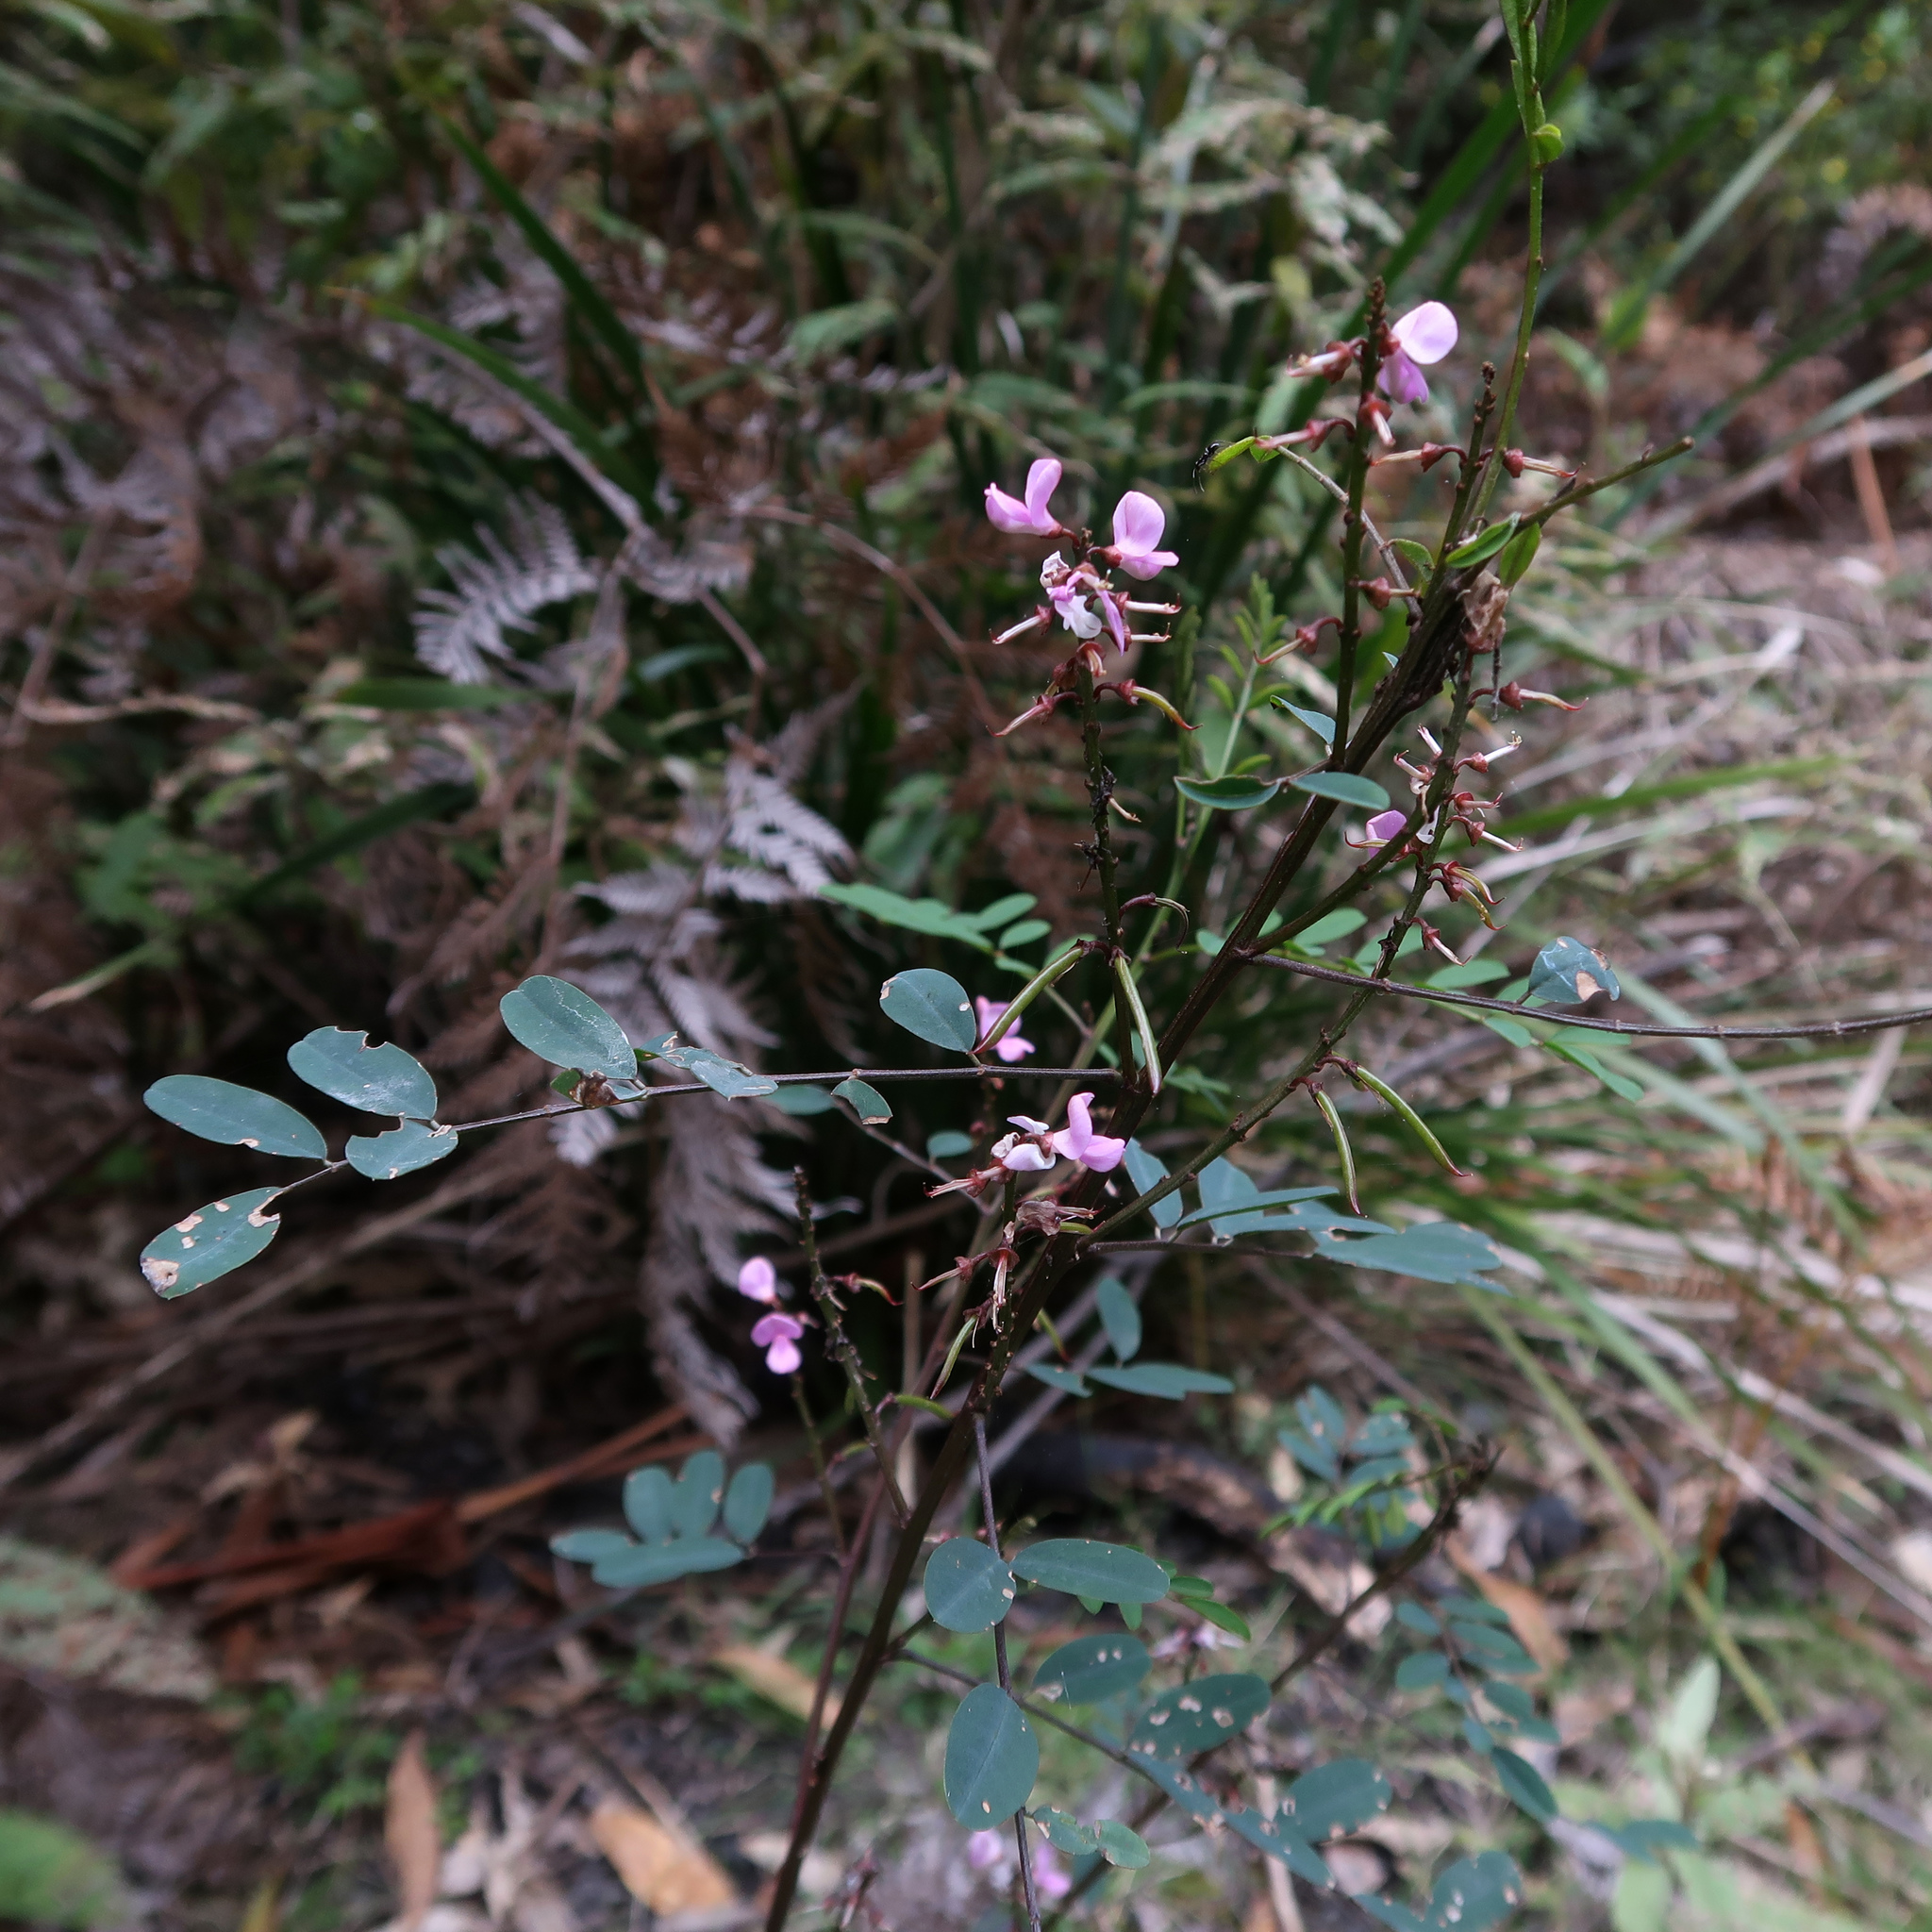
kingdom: Plantae
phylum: Tracheophyta
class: Magnoliopsida
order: Fabales
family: Fabaceae
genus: Indigofera
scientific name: Indigofera australis
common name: Australian indigo
